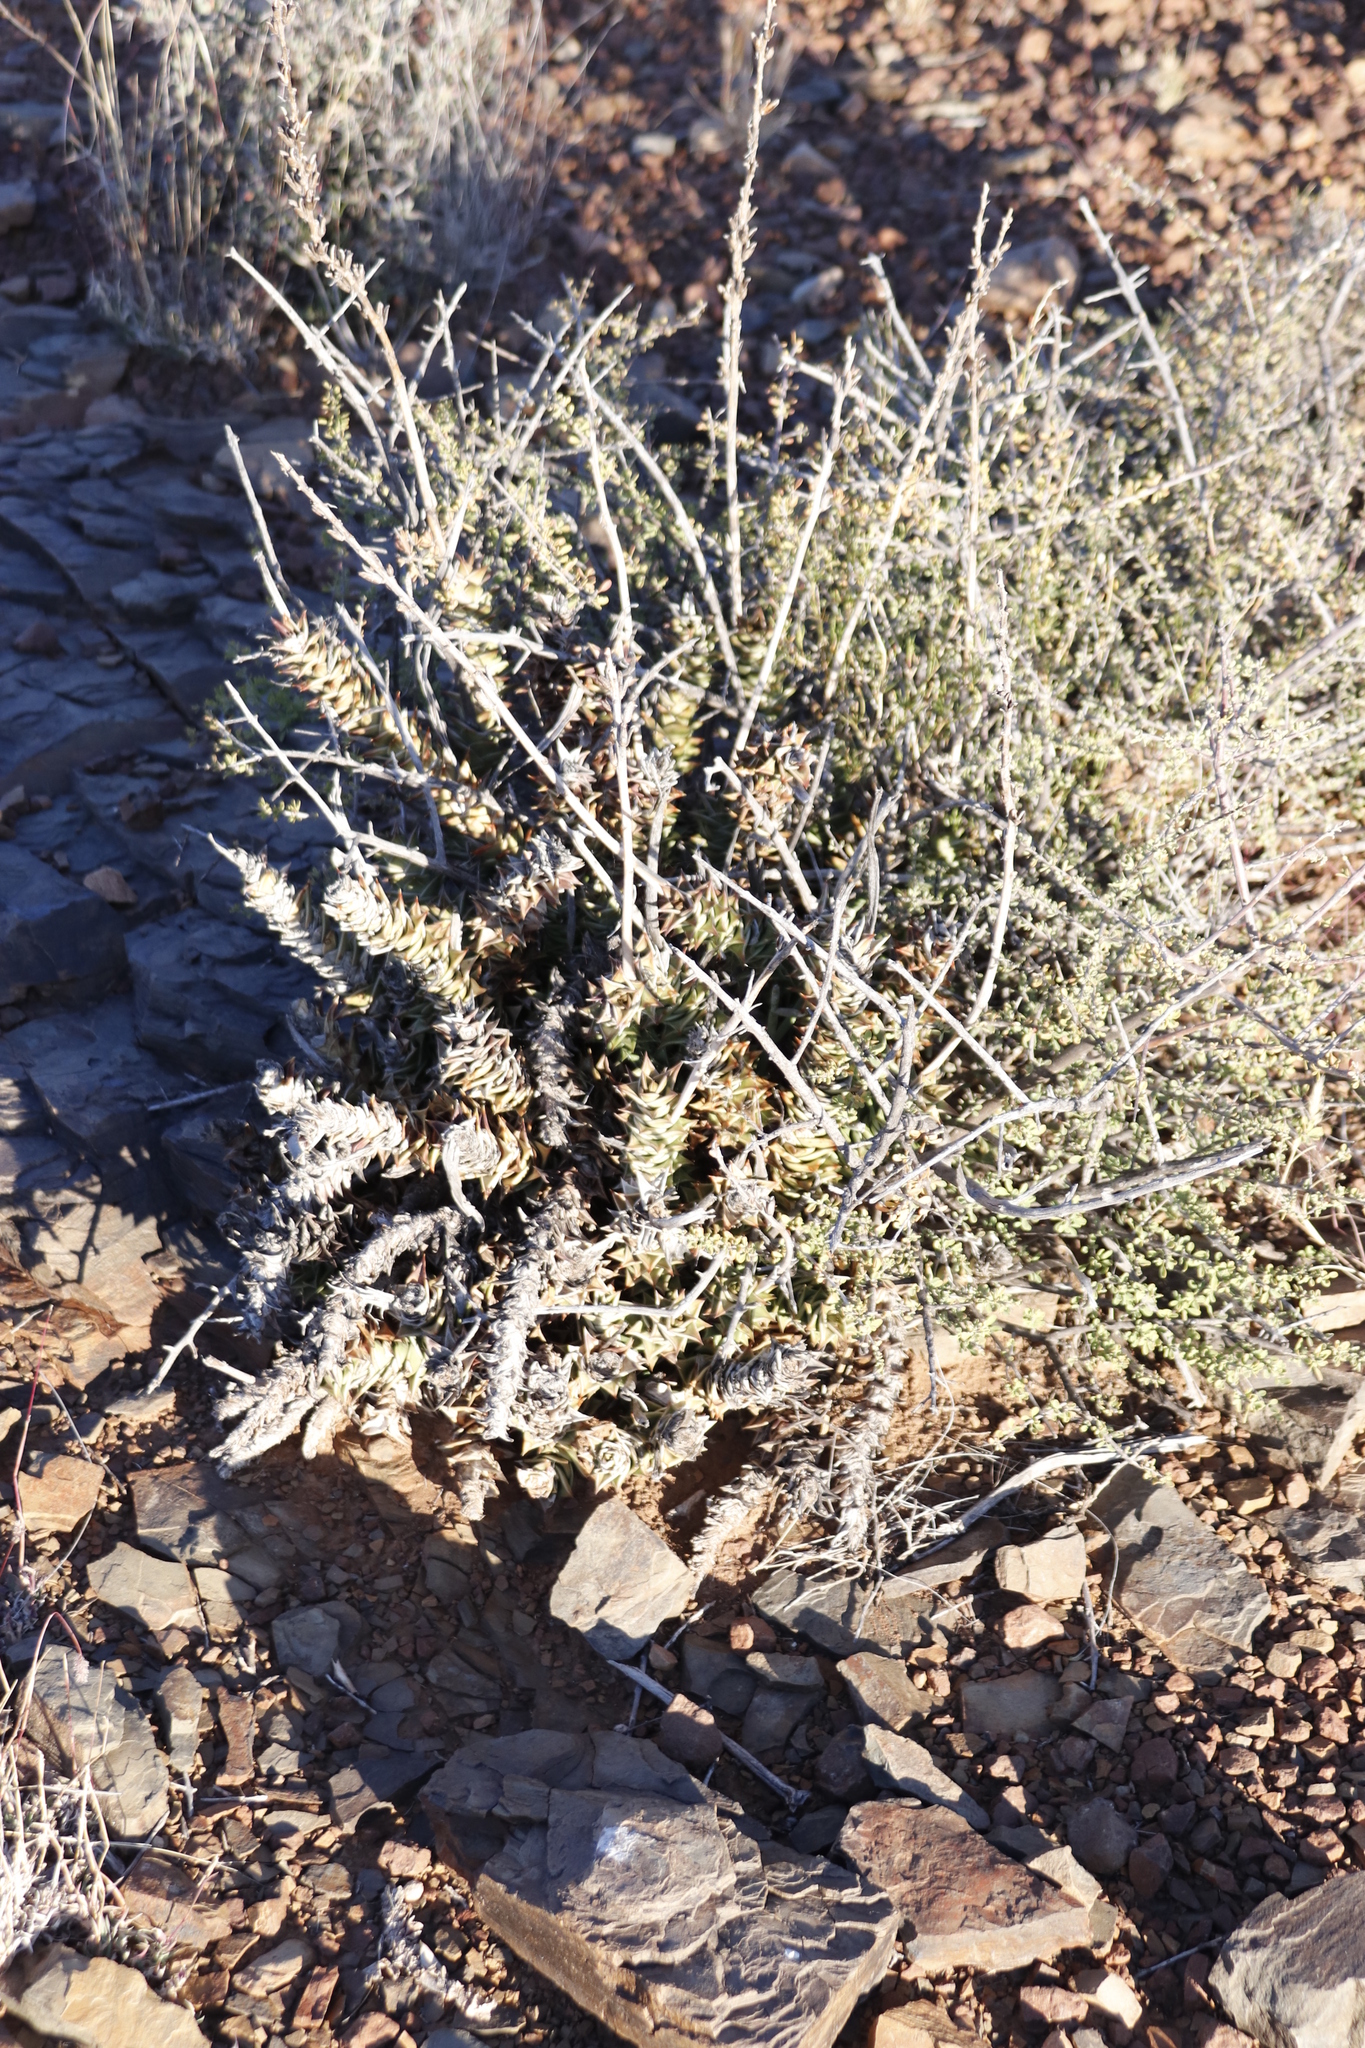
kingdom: Plantae
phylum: Tracheophyta
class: Liliopsida
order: Asparagales
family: Asphodelaceae
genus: Astroloba
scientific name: Astroloba robusta
